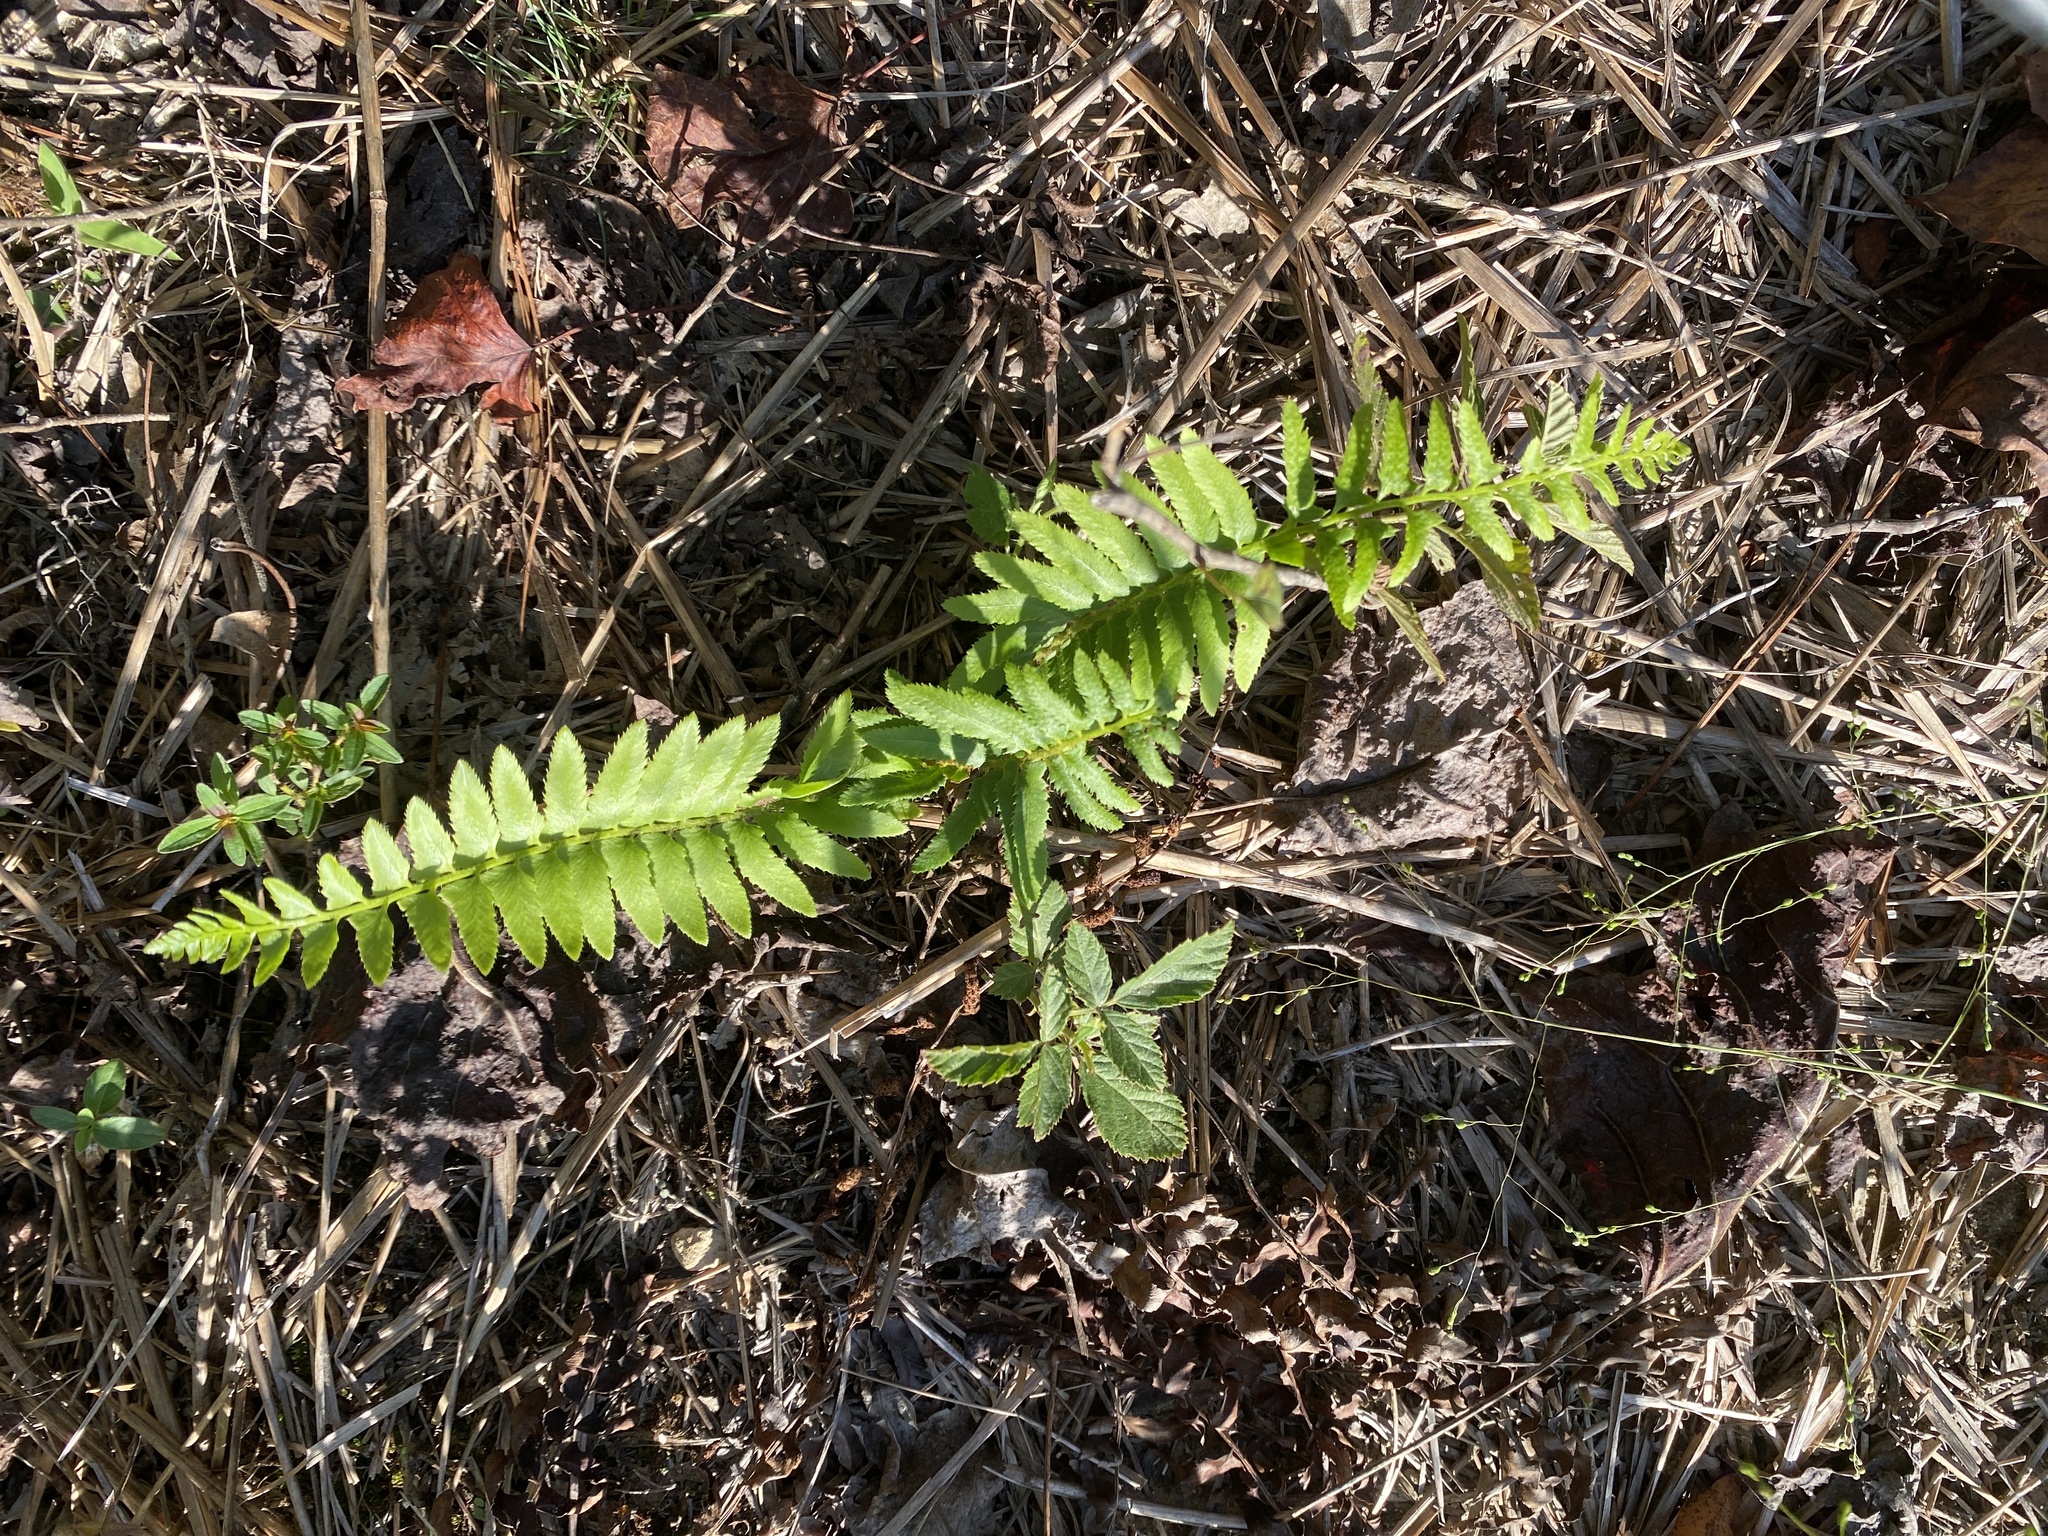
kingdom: Plantae
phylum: Tracheophyta
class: Polypodiopsida
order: Polypodiales
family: Dryopteridaceae
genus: Polystichum
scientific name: Polystichum acrostichoides
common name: Christmas fern
